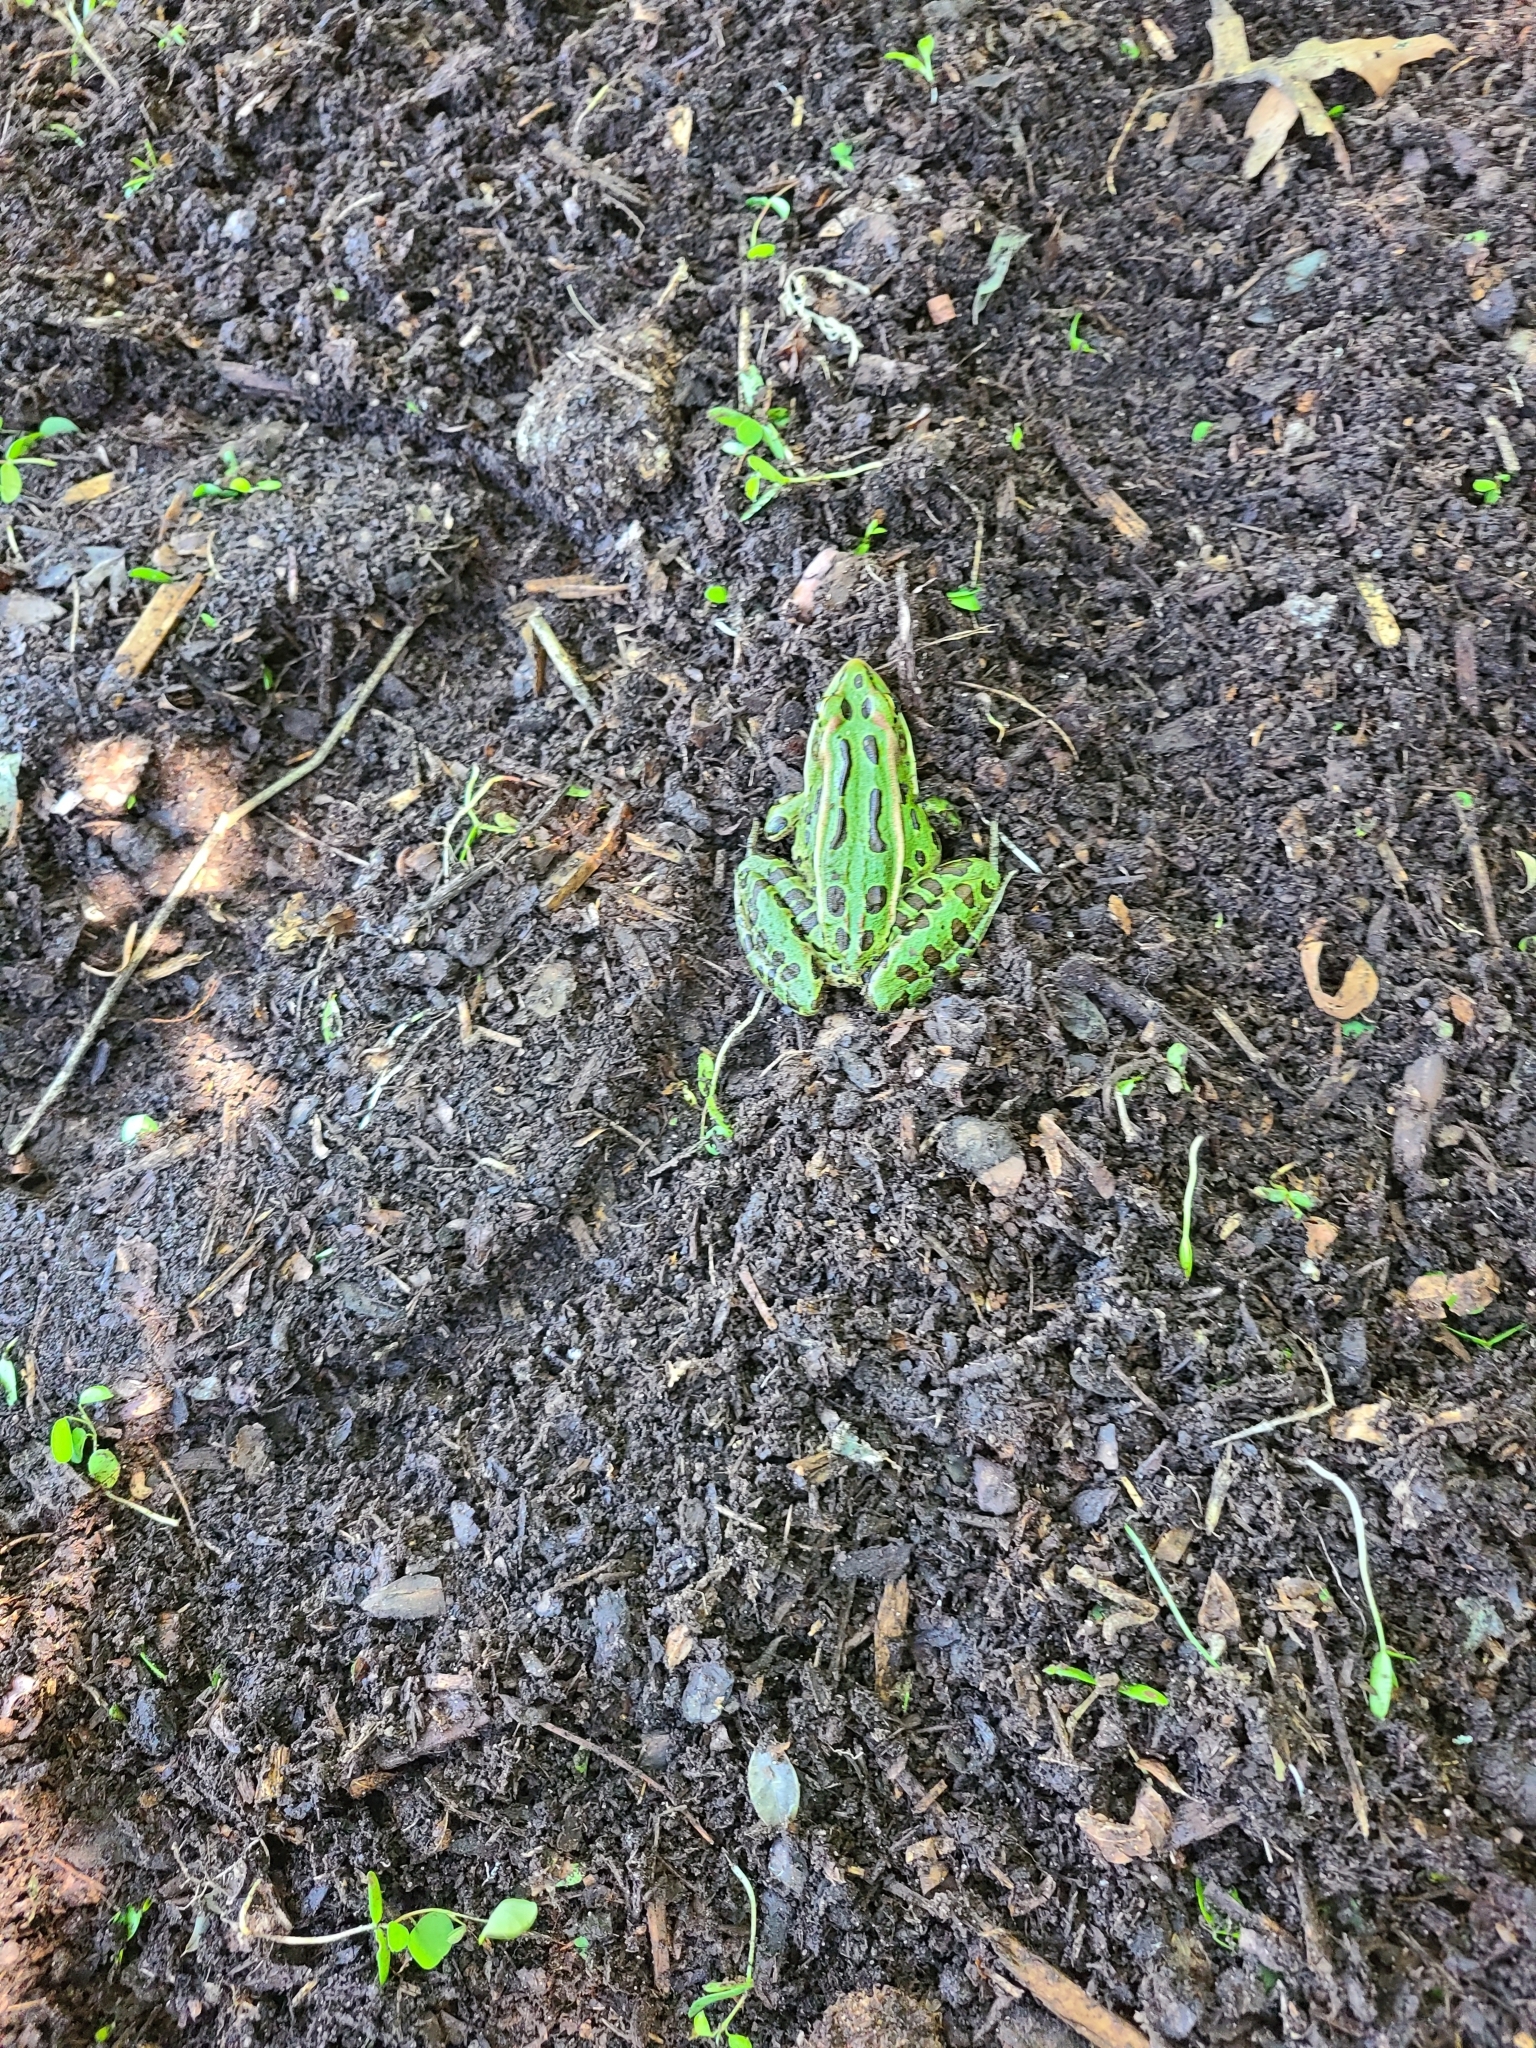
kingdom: Animalia
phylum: Chordata
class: Amphibia
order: Anura
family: Ranidae
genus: Lithobates
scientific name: Lithobates pipiens
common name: Northern leopard frog
